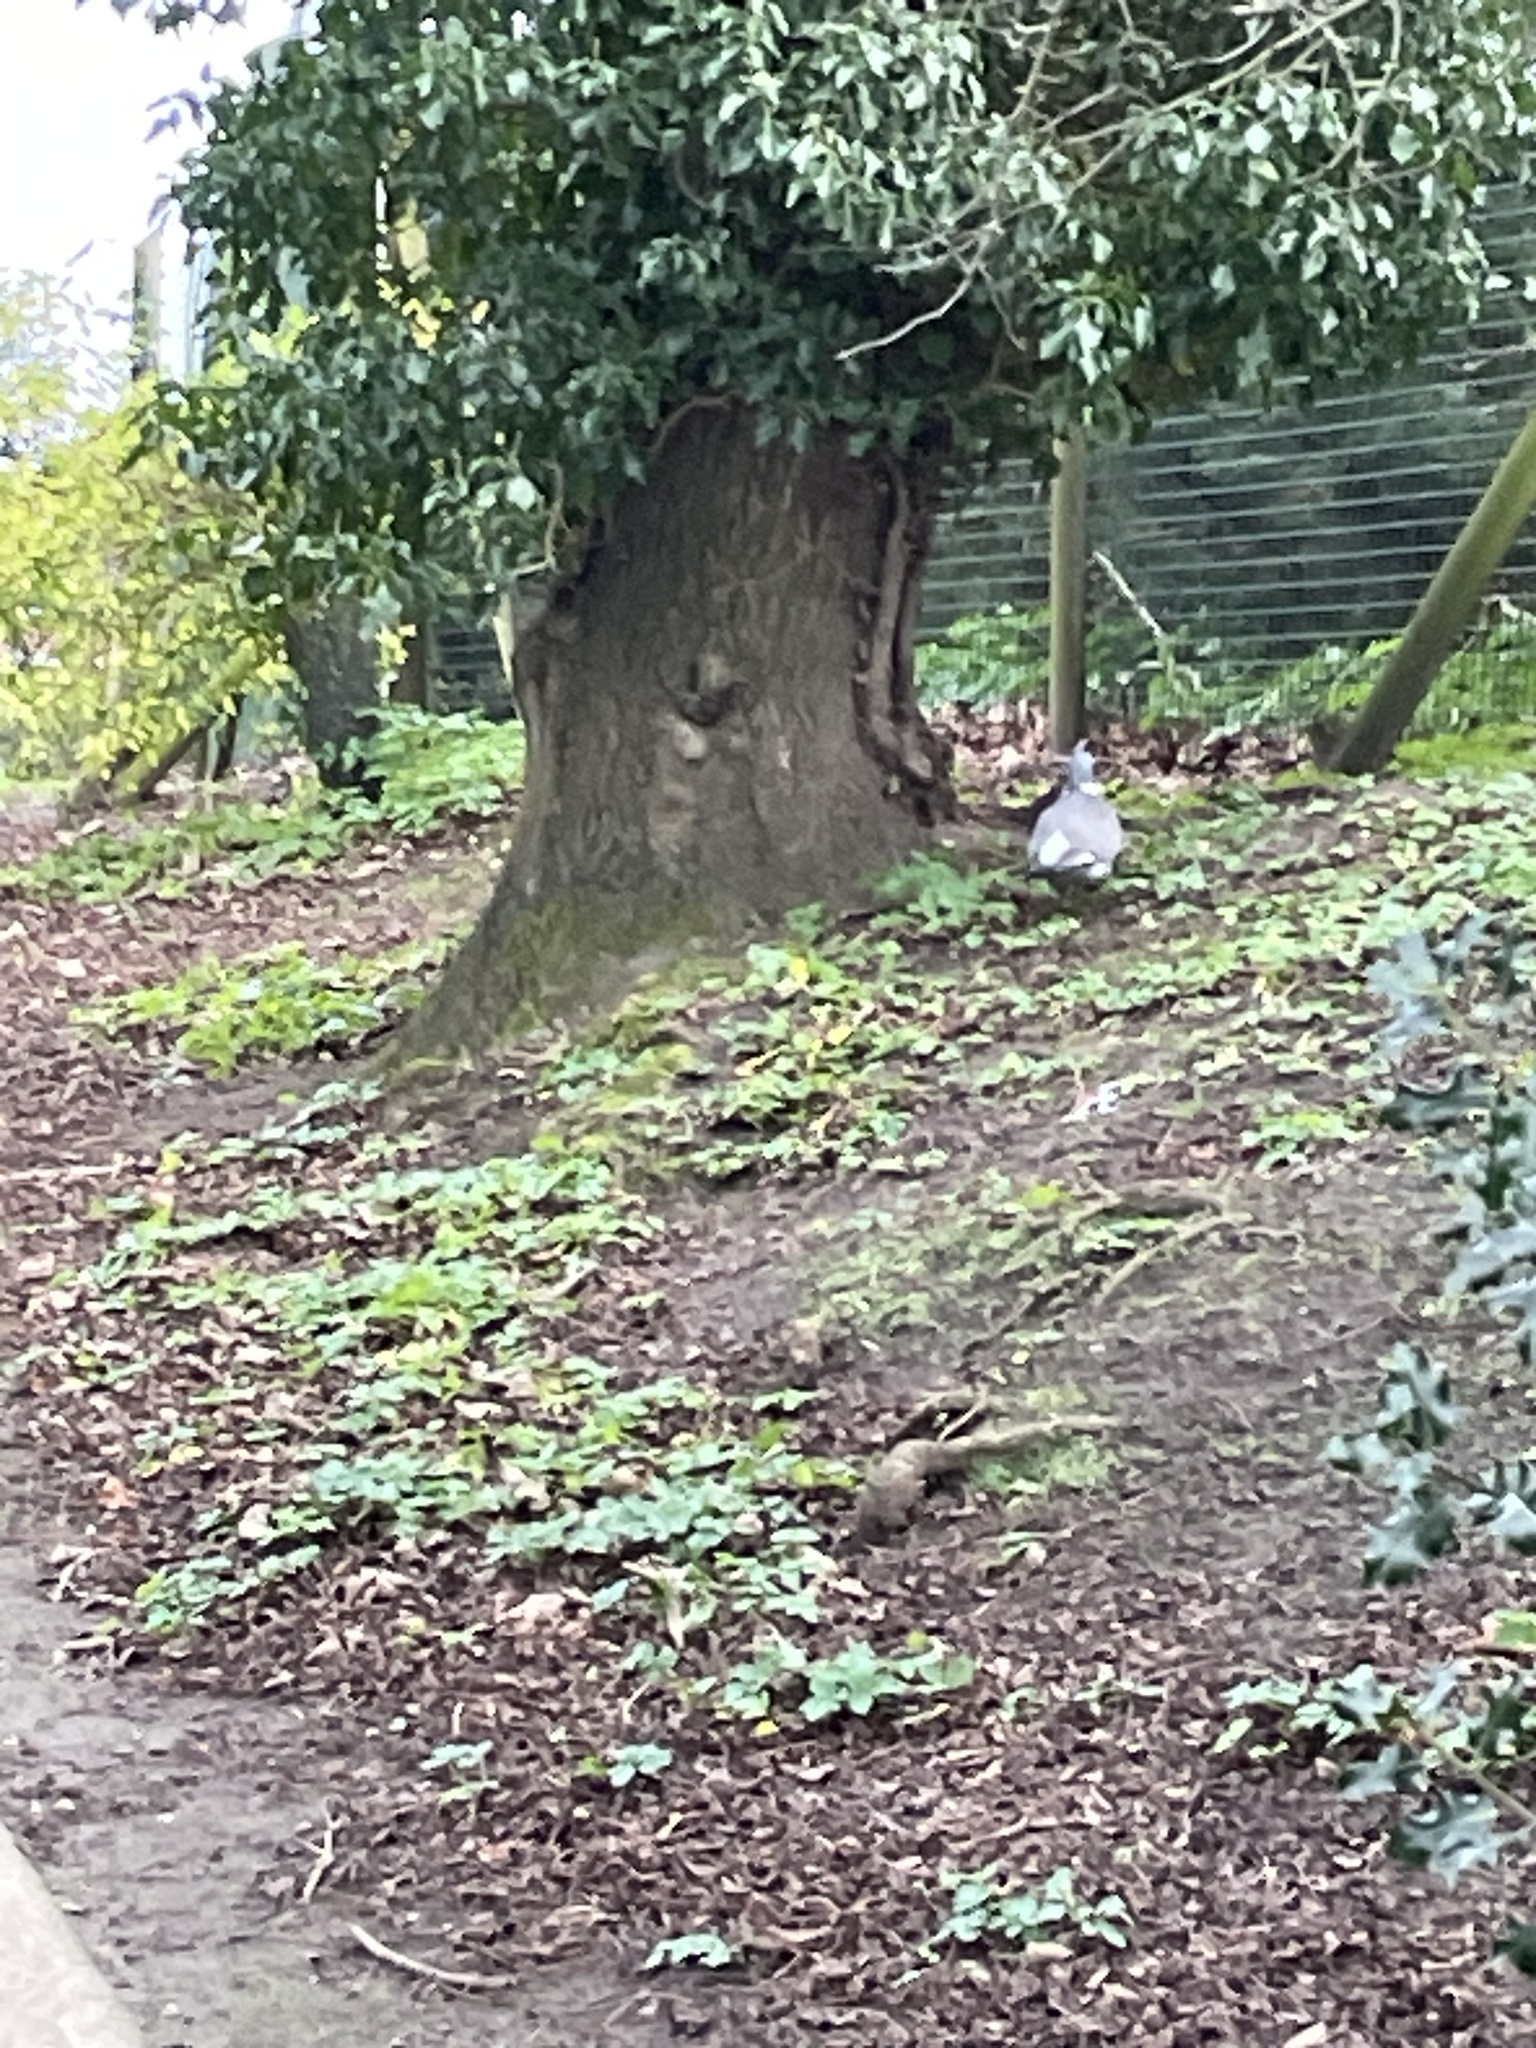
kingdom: Animalia
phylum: Chordata
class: Aves
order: Columbiformes
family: Columbidae
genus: Columba
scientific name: Columba palumbus
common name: Common wood pigeon
